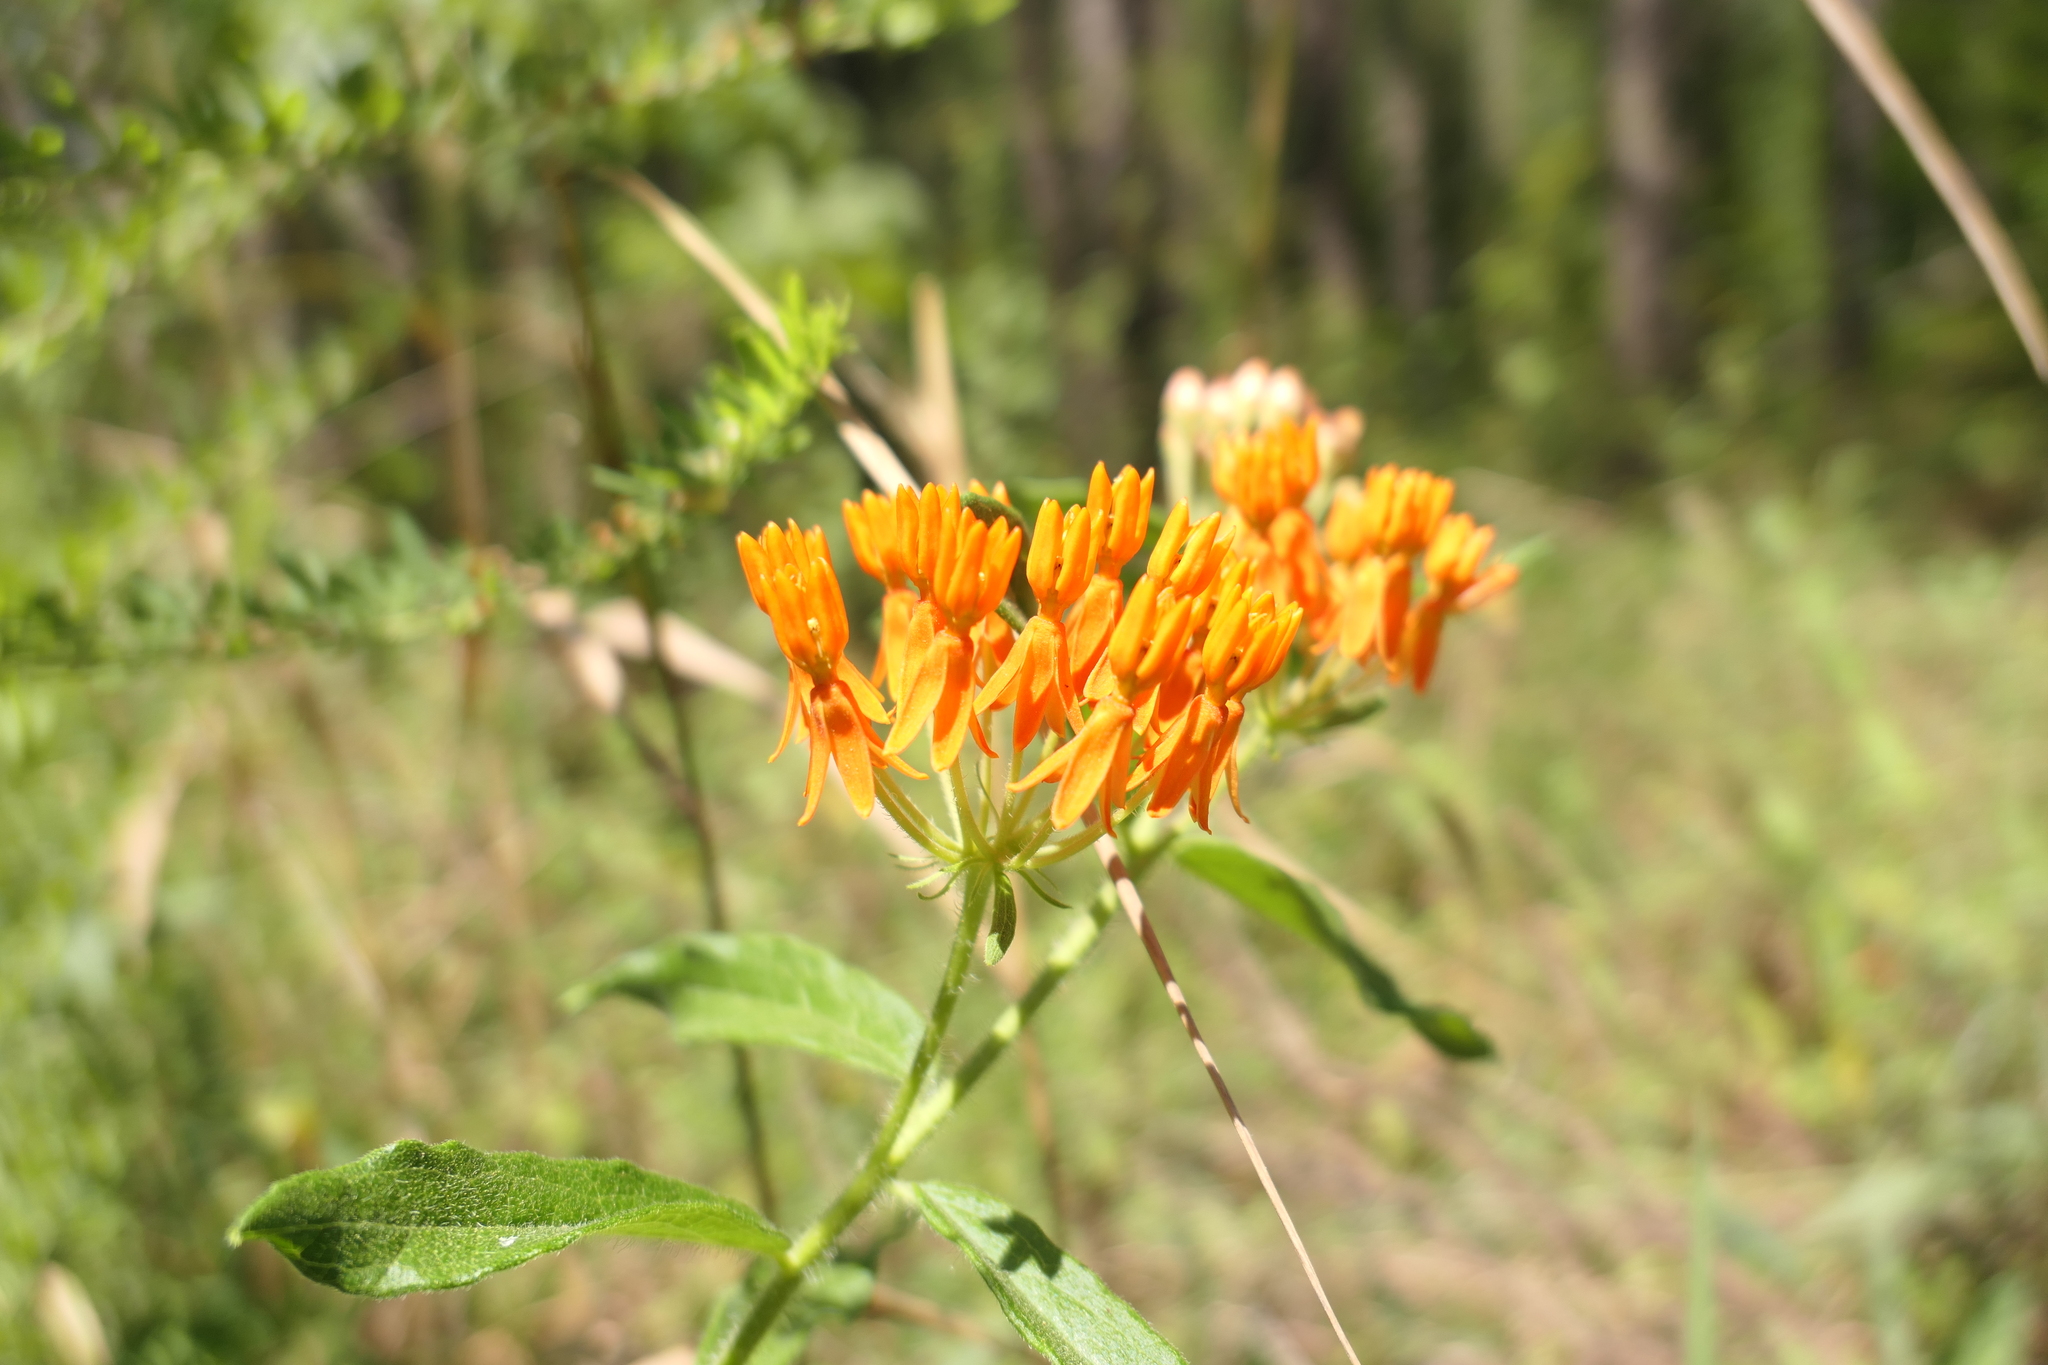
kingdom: Plantae
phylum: Tracheophyta
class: Magnoliopsida
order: Gentianales
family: Apocynaceae
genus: Asclepias
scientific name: Asclepias tuberosa
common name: Butterfly milkweed
